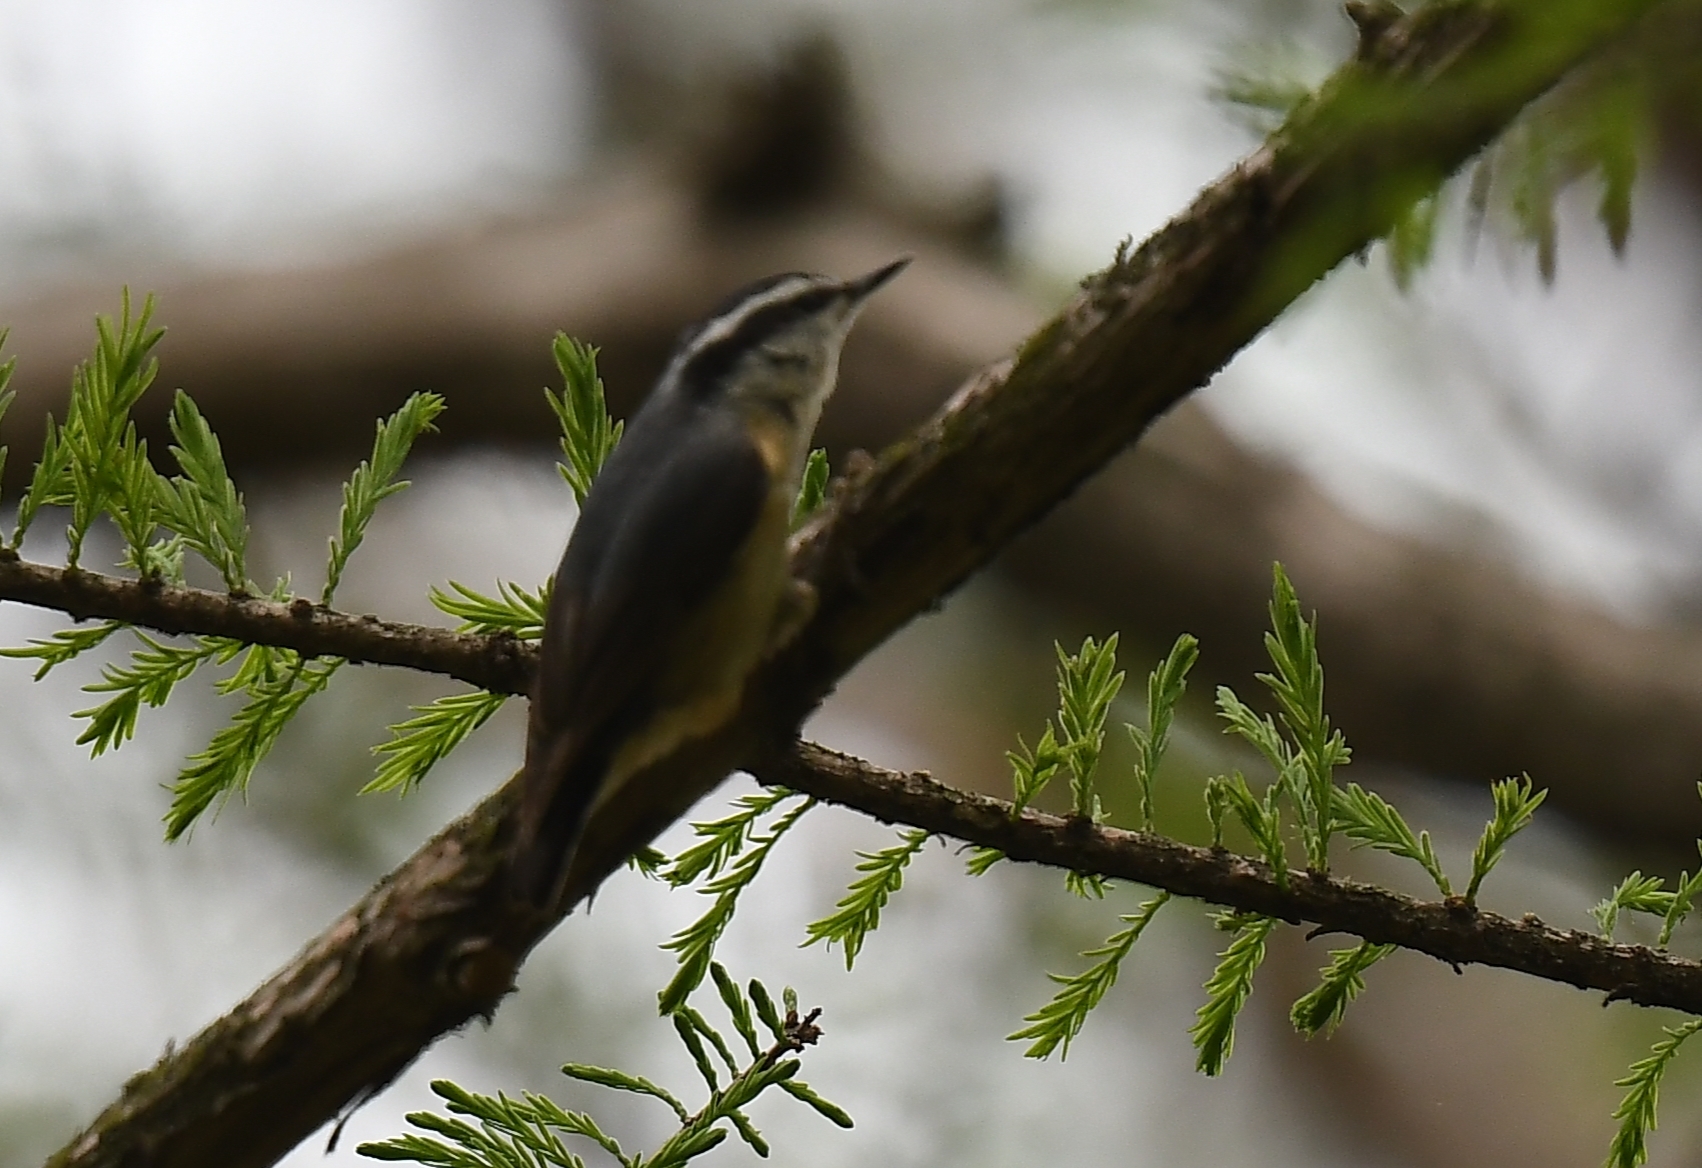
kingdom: Animalia
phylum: Chordata
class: Aves
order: Passeriformes
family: Sittidae
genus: Sitta
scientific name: Sitta canadensis
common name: Red-breasted nuthatch
